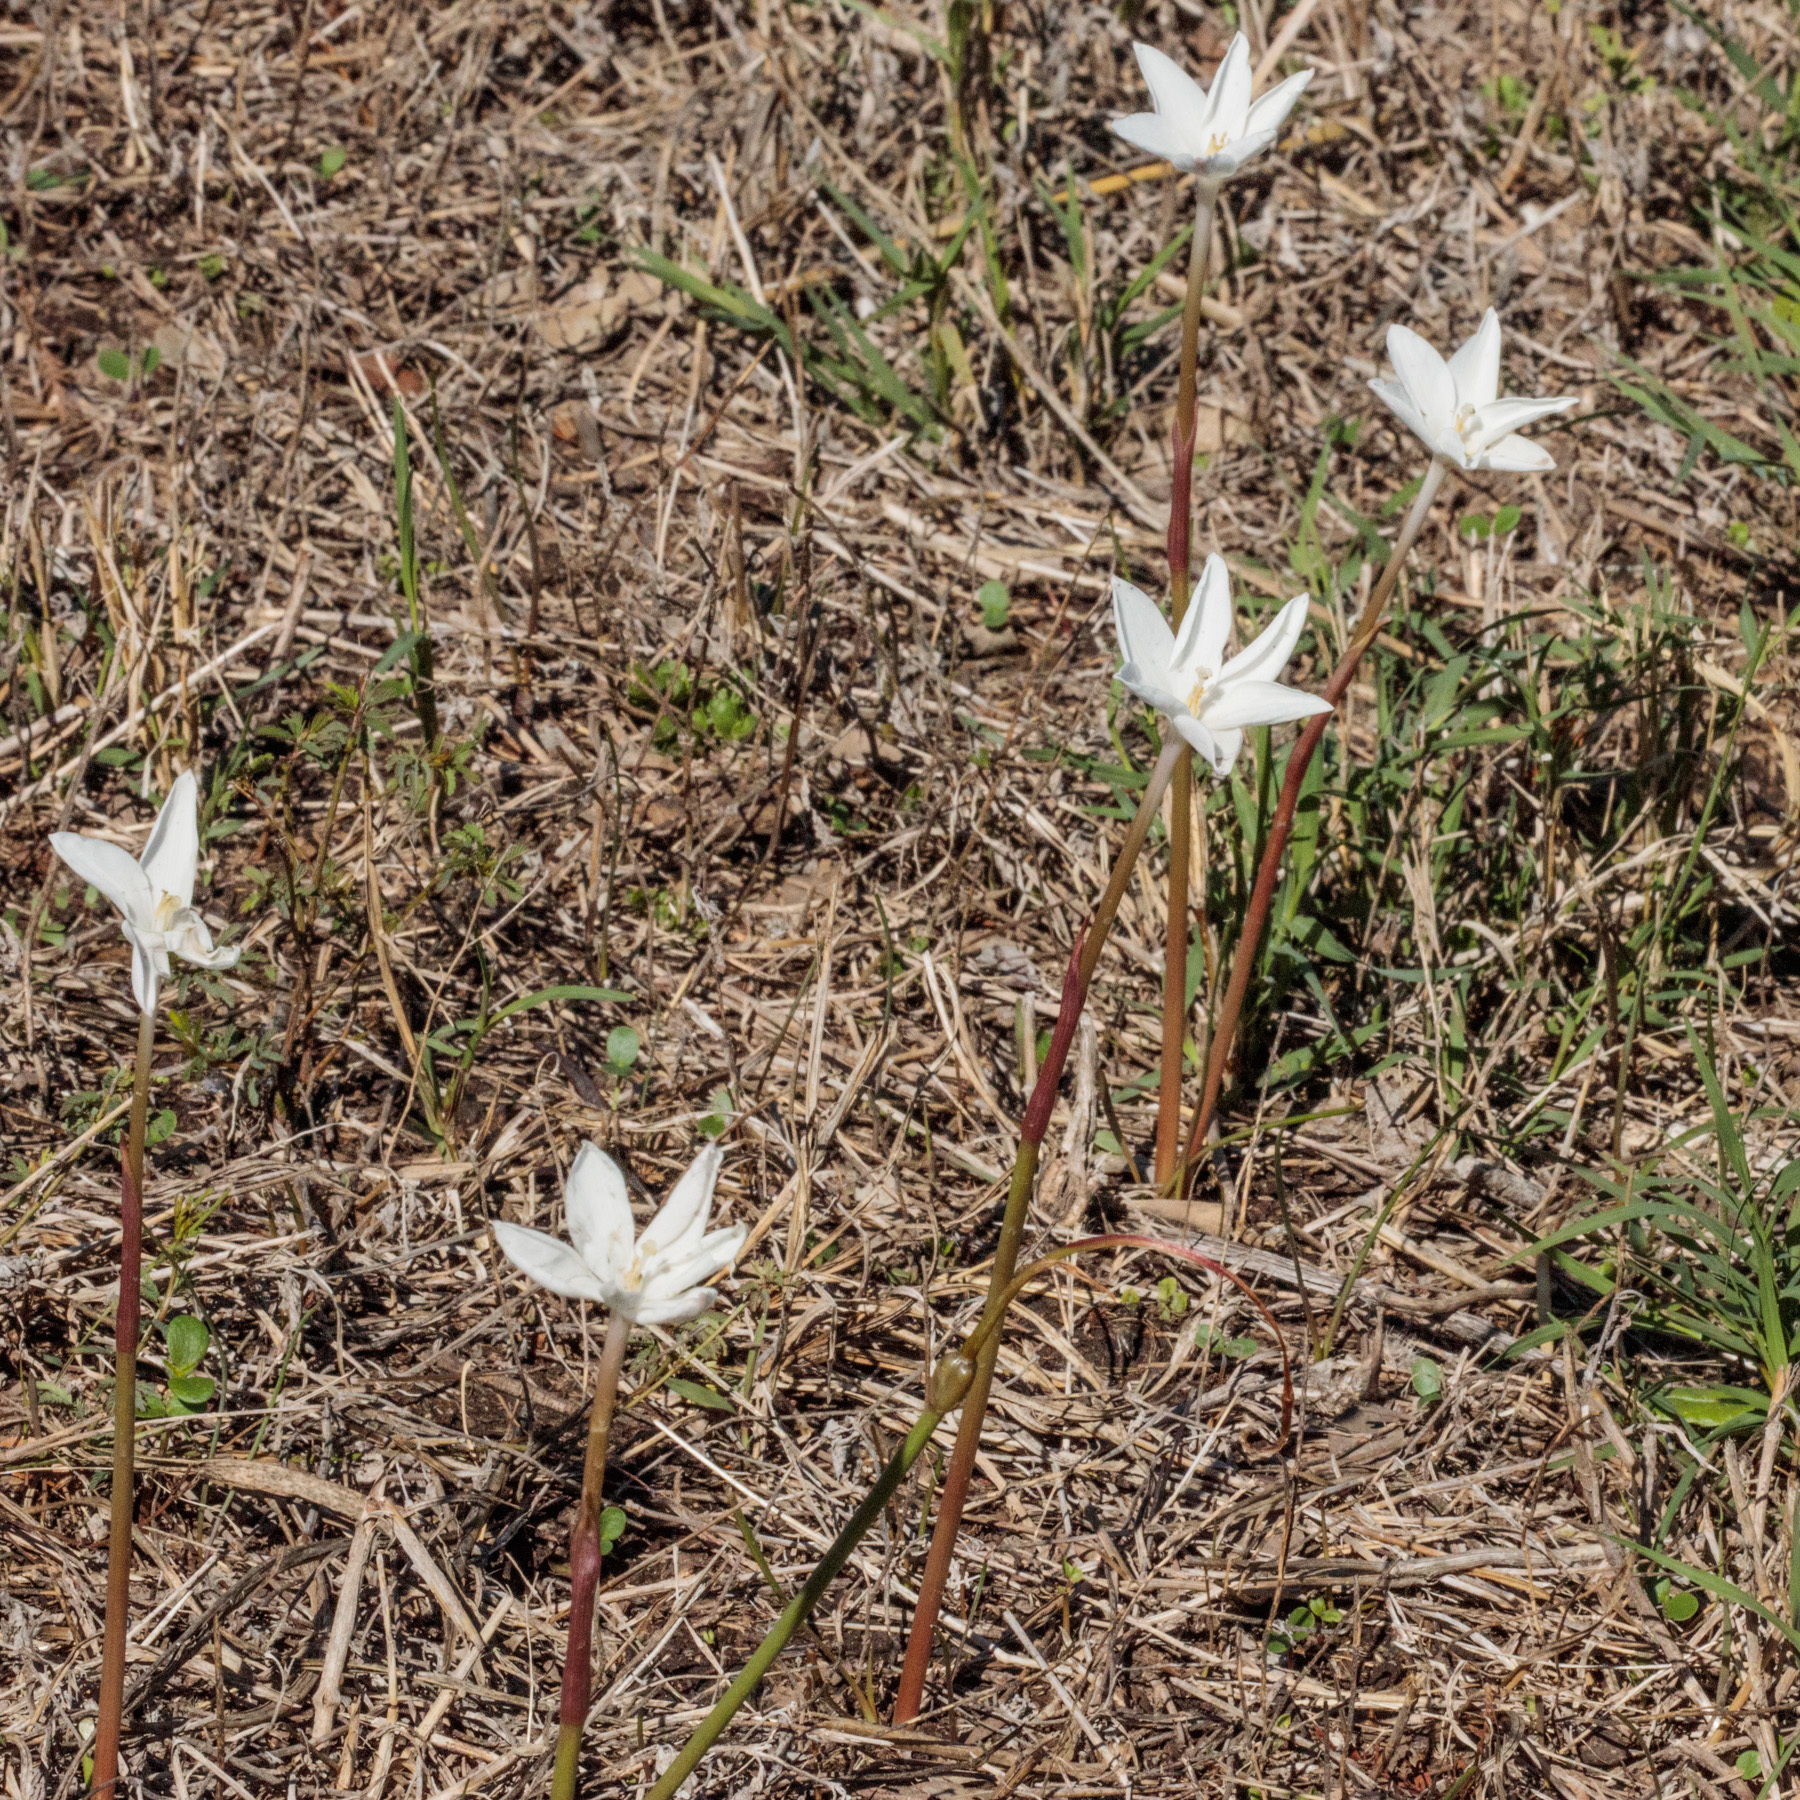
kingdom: Plantae
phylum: Tracheophyta
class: Liliopsida
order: Asparagales
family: Amaryllidaceae
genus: Zephyranthes
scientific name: Zephyranthes chlorosolen
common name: Evening rain-lily
